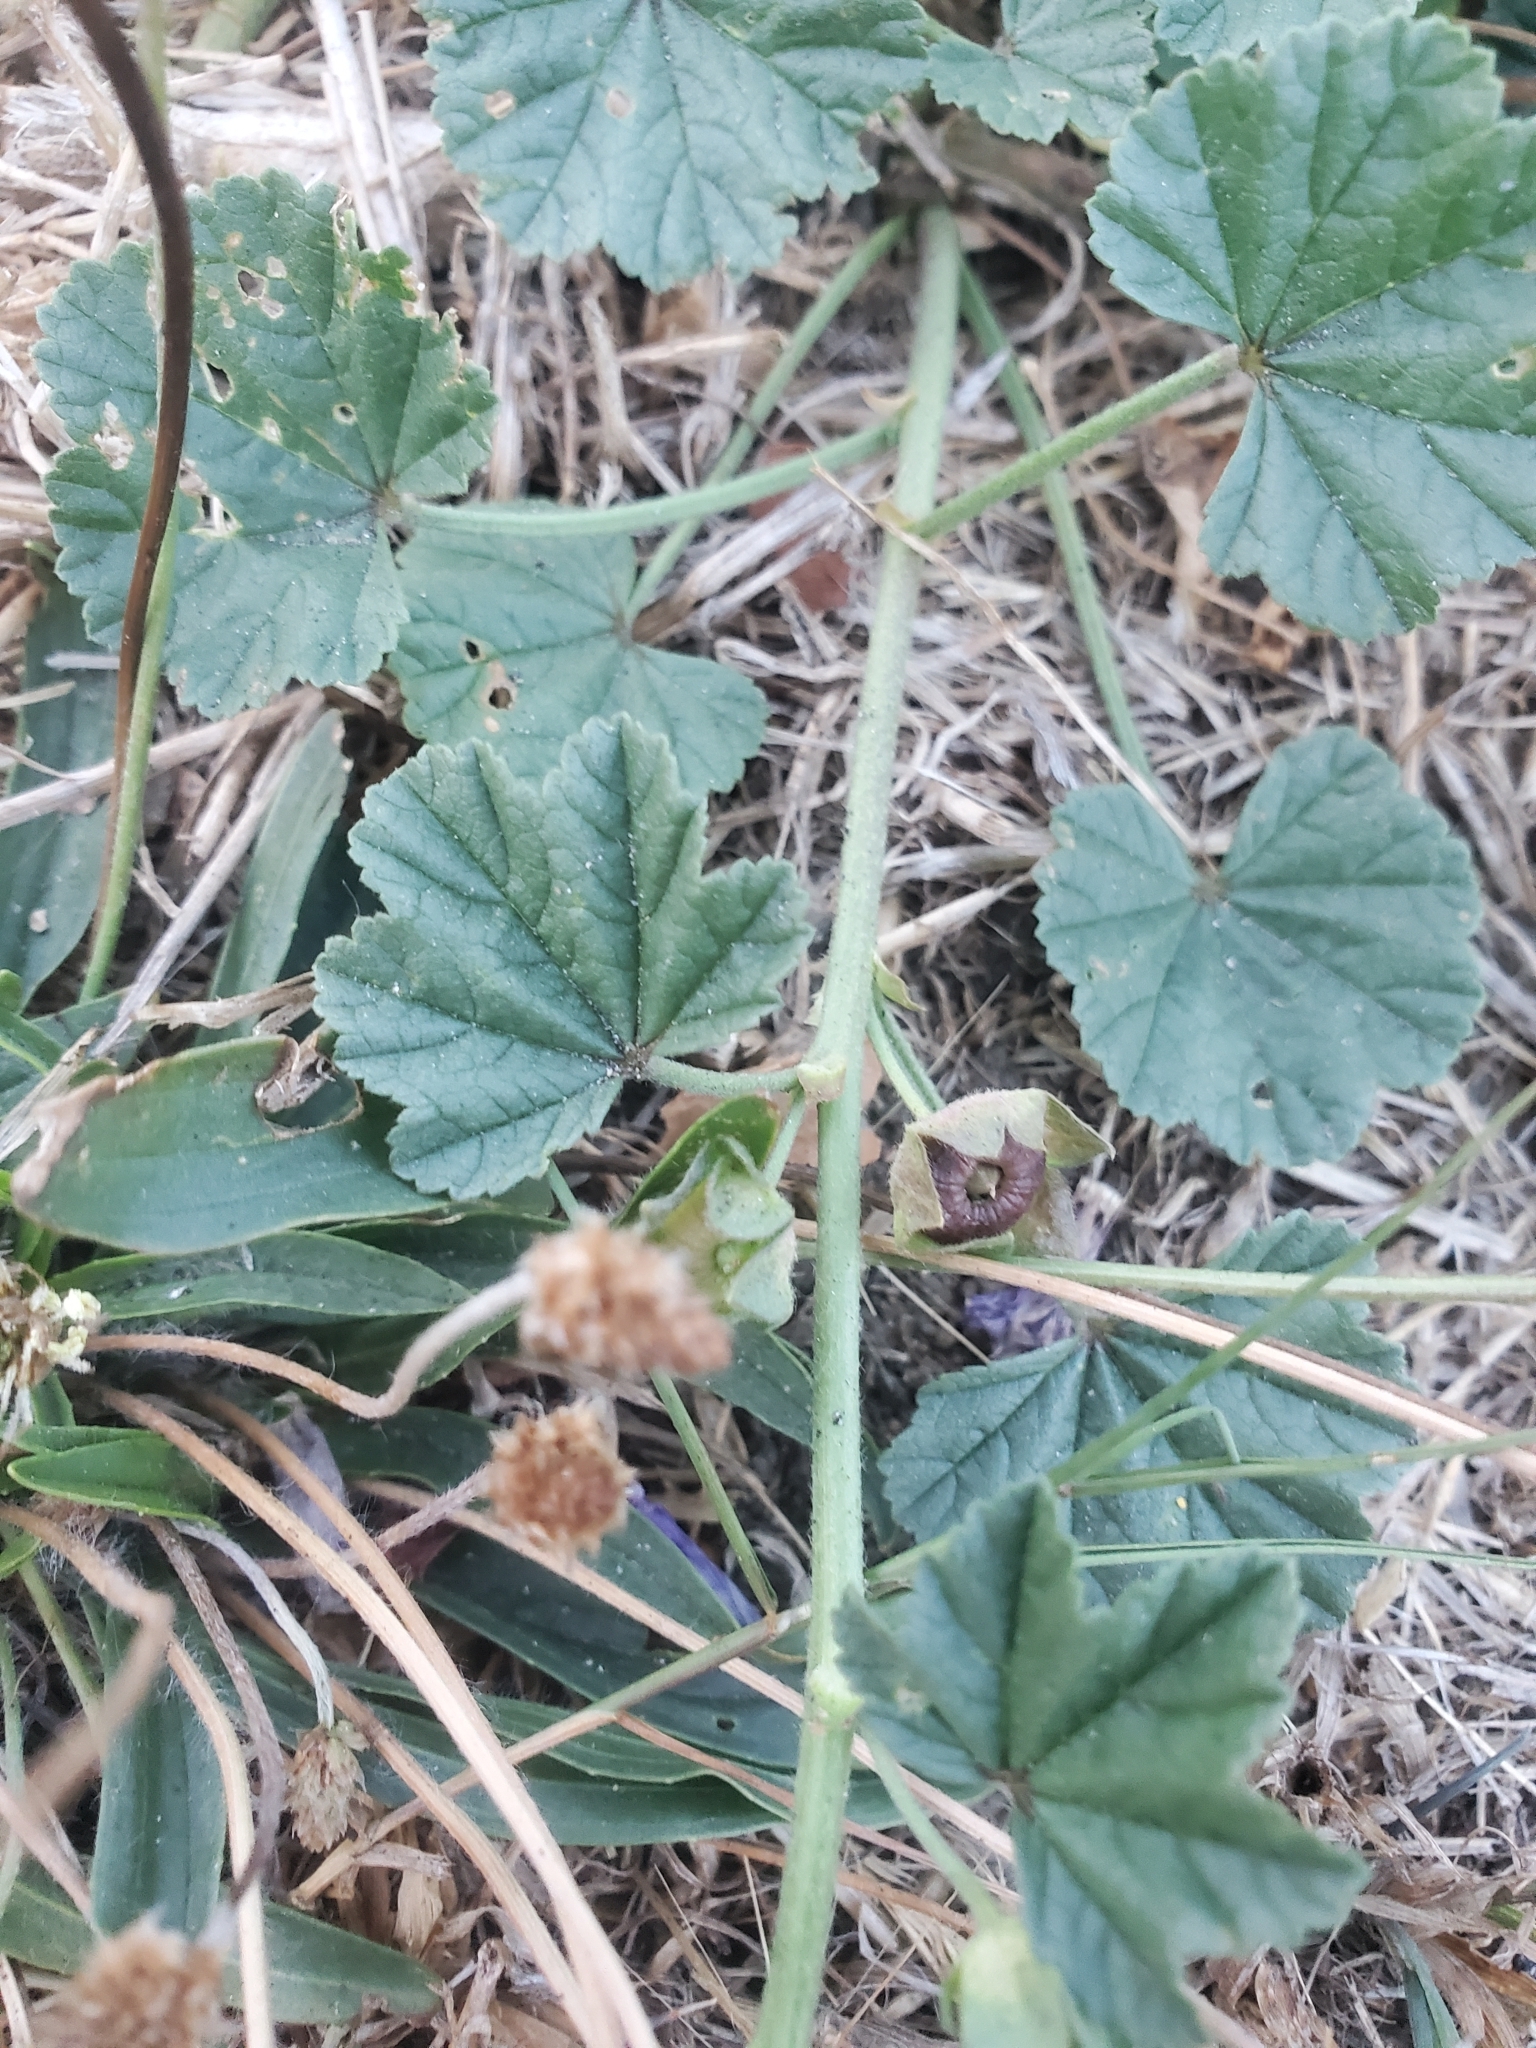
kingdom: Plantae
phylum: Tracheophyta
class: Magnoliopsida
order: Malvales
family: Malvaceae
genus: Malva
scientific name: Malva sylvestris
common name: Common mallow
